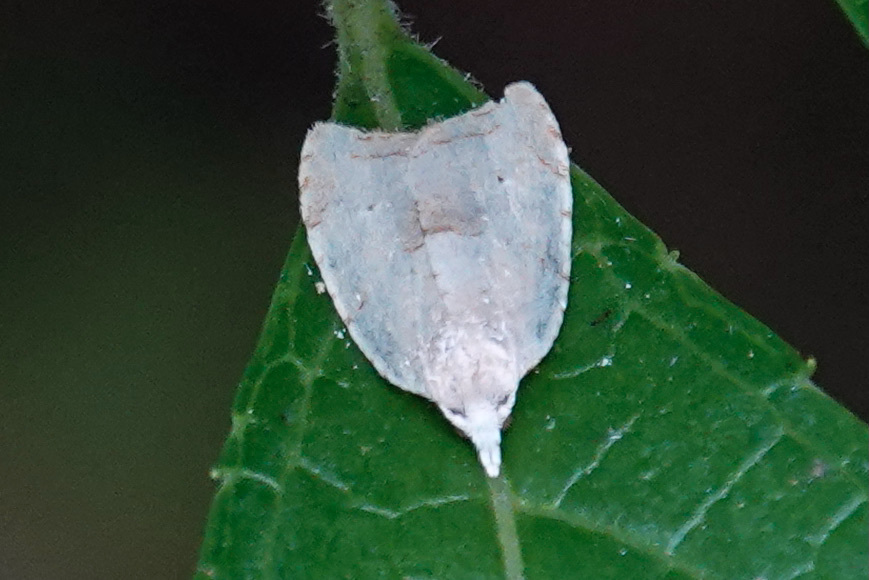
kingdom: Animalia
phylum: Arthropoda
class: Insecta
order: Lepidoptera
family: Tortricidae
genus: Coelostathma
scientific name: Coelostathma discopunctana
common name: Batman moth
